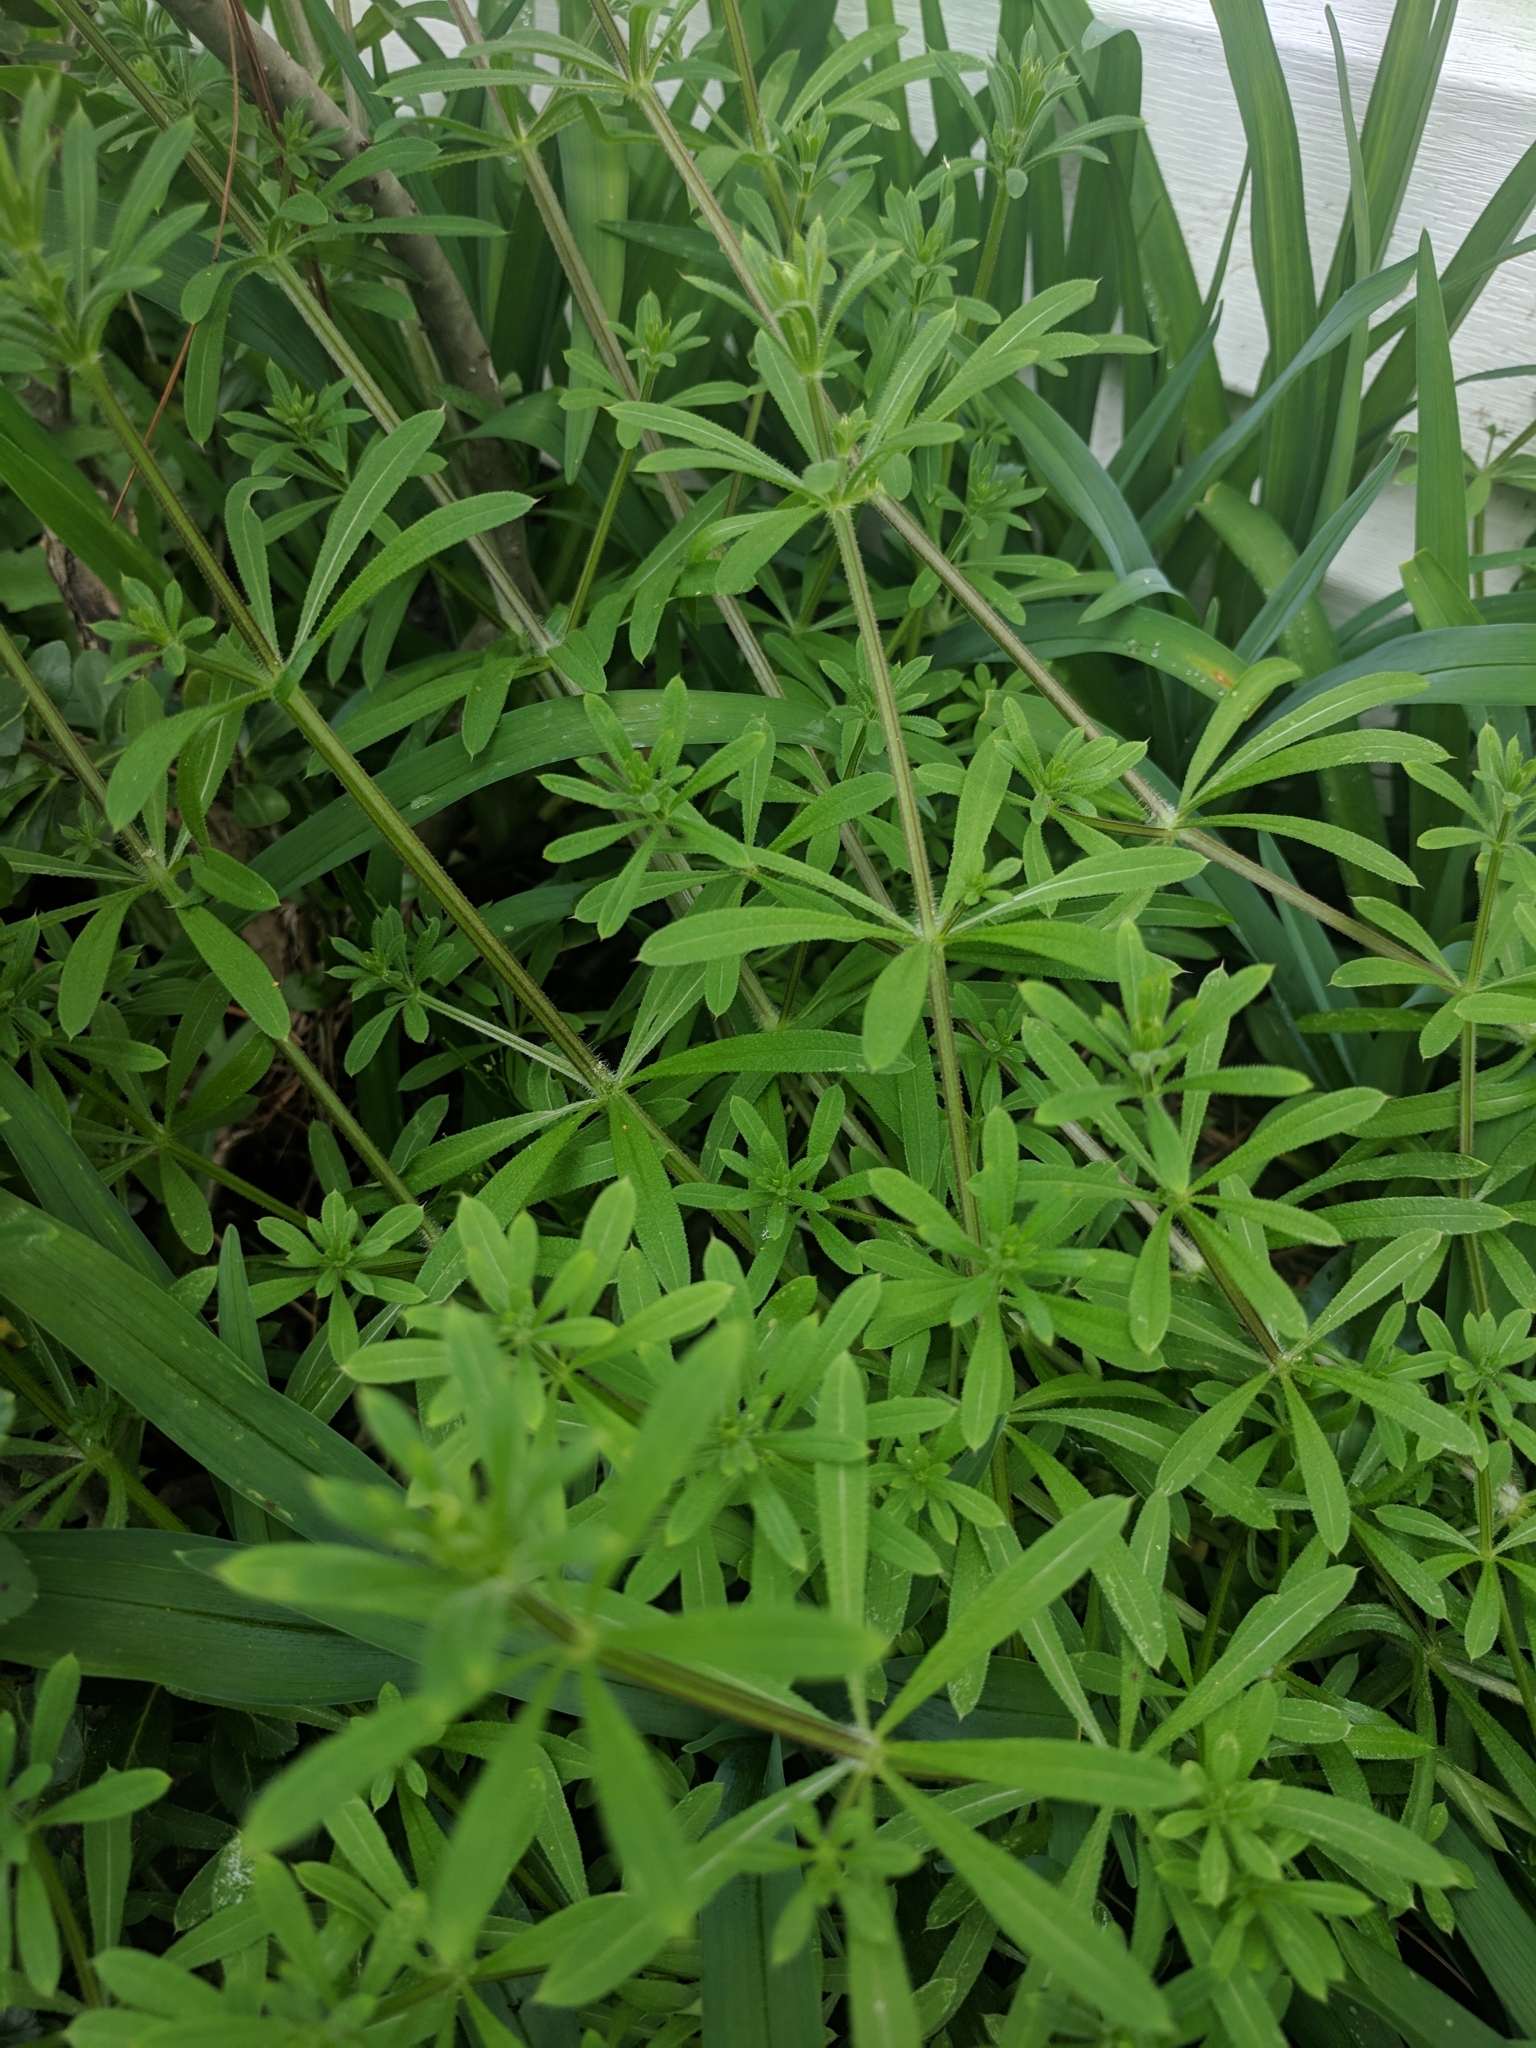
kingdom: Plantae
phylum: Tracheophyta
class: Magnoliopsida
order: Gentianales
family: Rubiaceae
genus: Galium
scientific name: Galium aparine
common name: Cleavers
